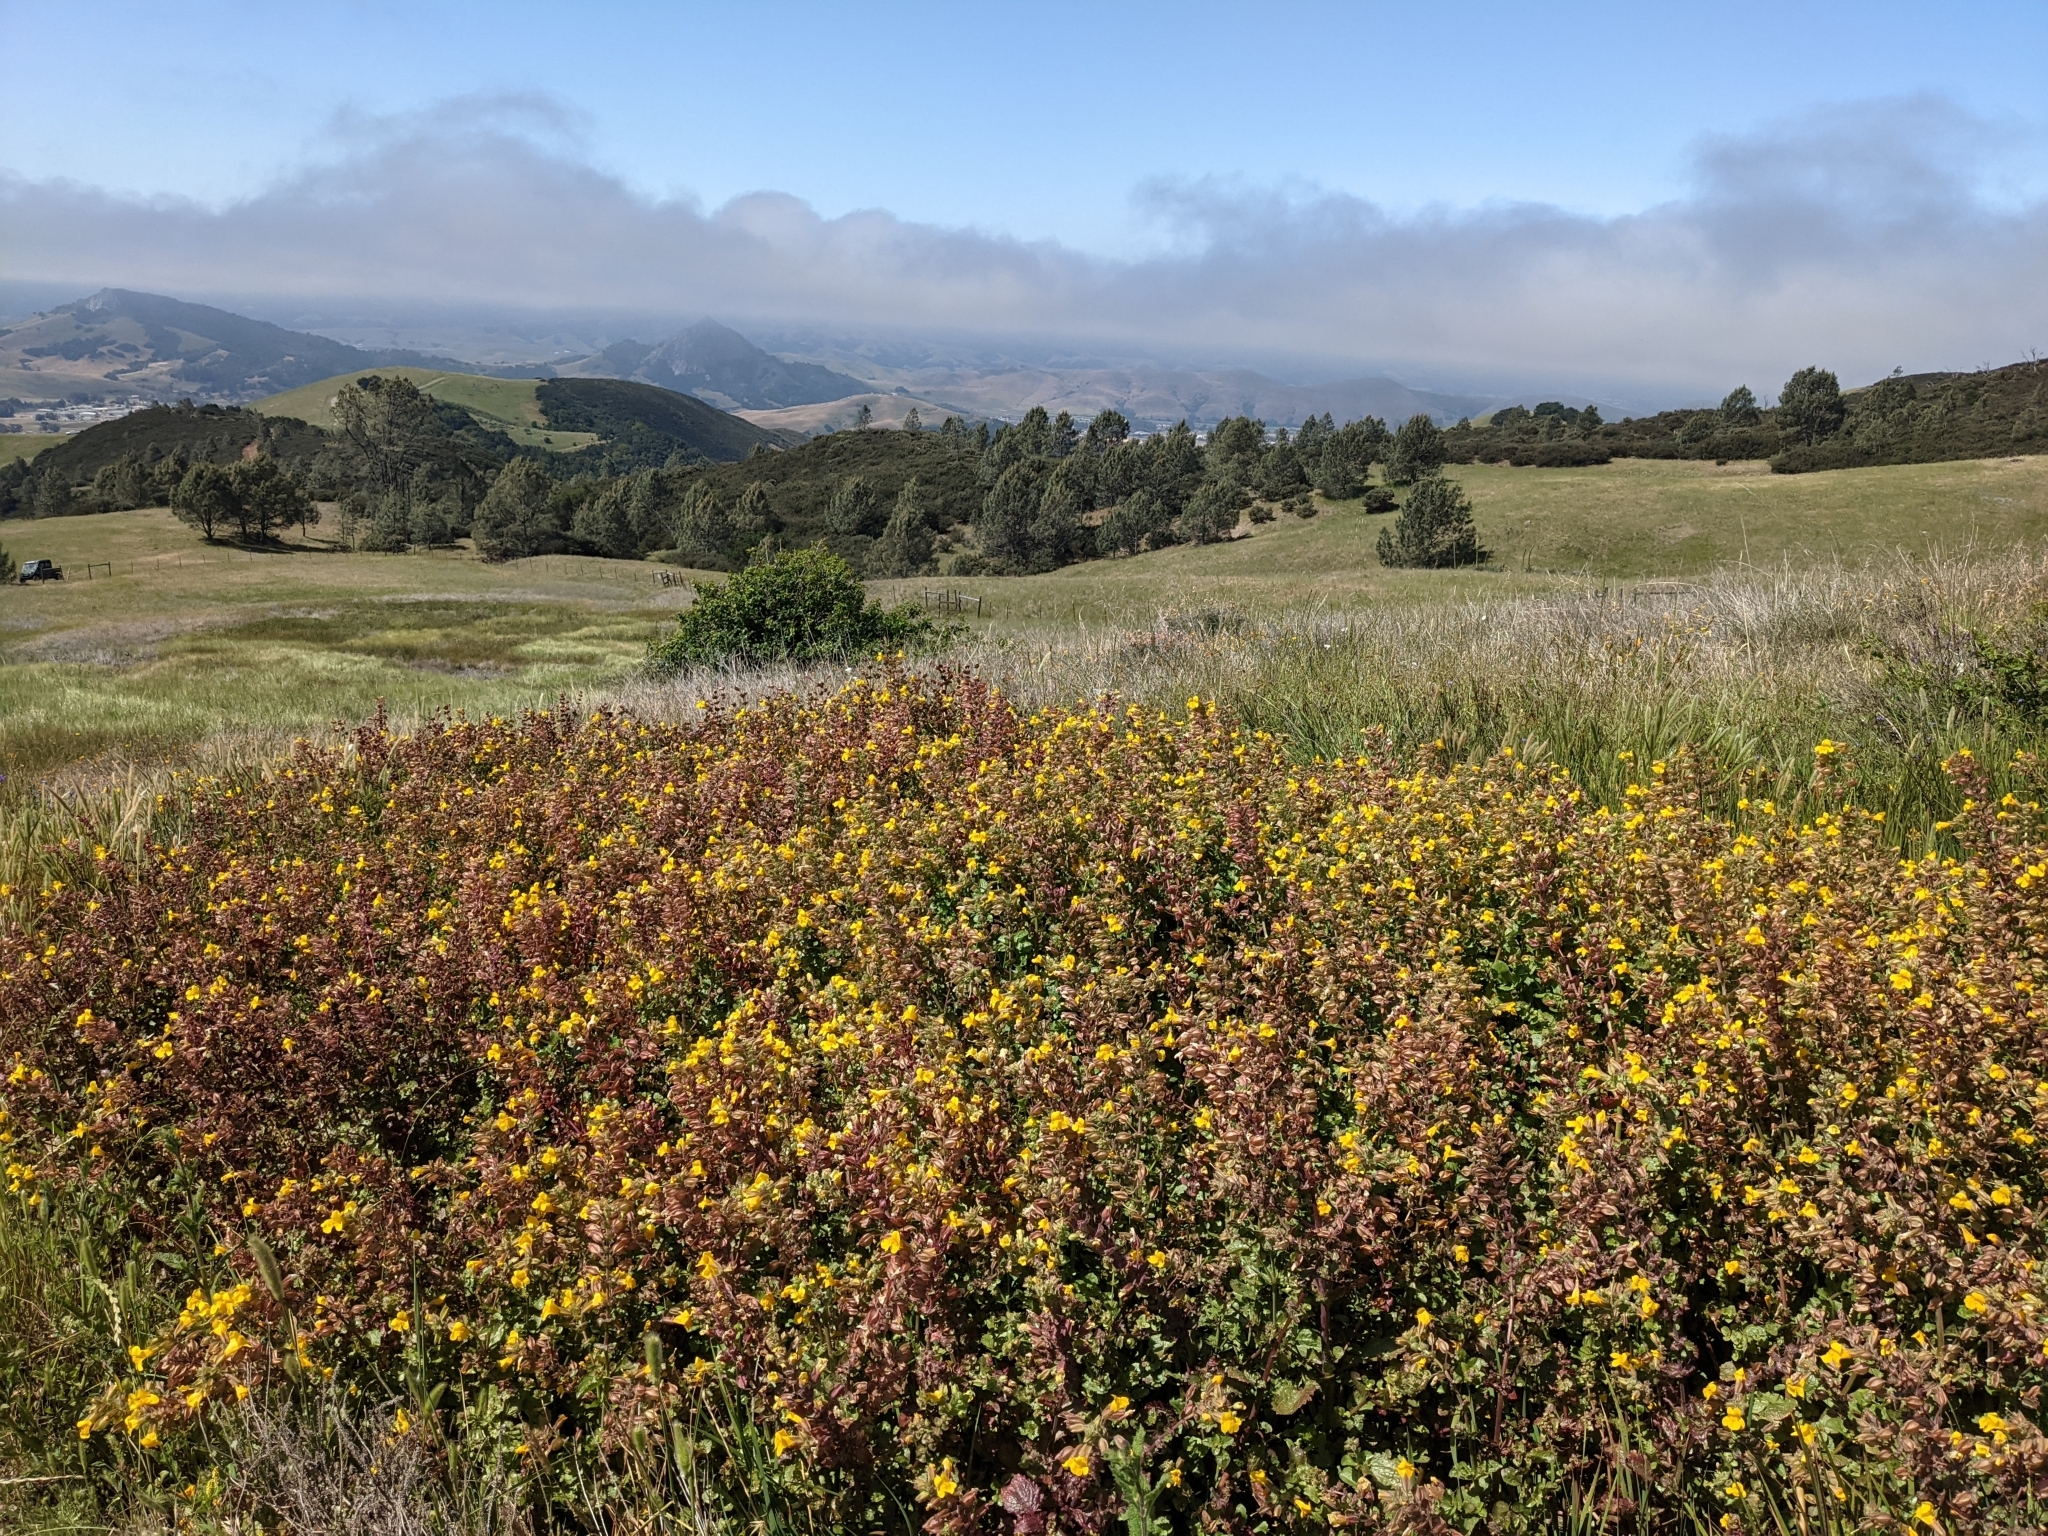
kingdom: Plantae
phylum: Tracheophyta
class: Magnoliopsida
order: Lamiales
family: Phrymaceae
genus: Erythranthe
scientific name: Erythranthe guttata
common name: Monkeyflower
